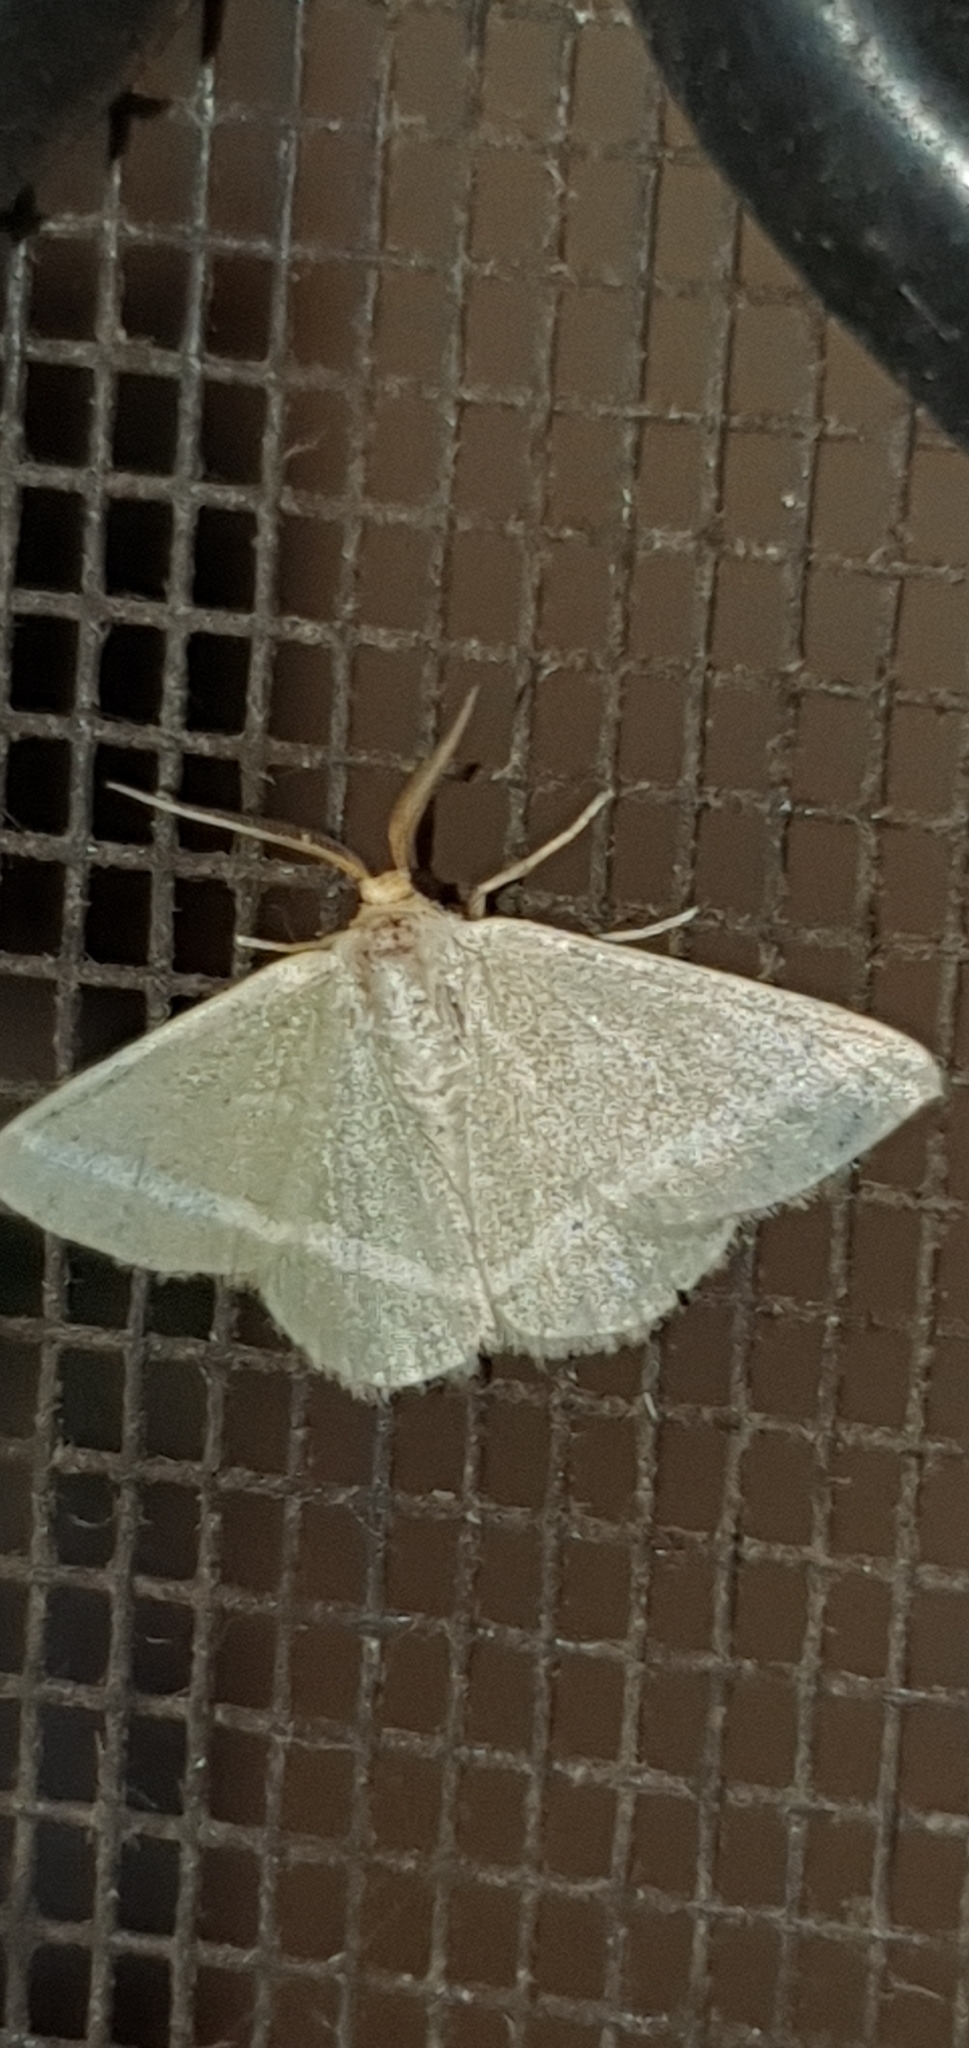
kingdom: Animalia
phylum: Arthropoda
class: Insecta
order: Lepidoptera
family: Geometridae
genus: Mixocera
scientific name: Mixocera latilineata
